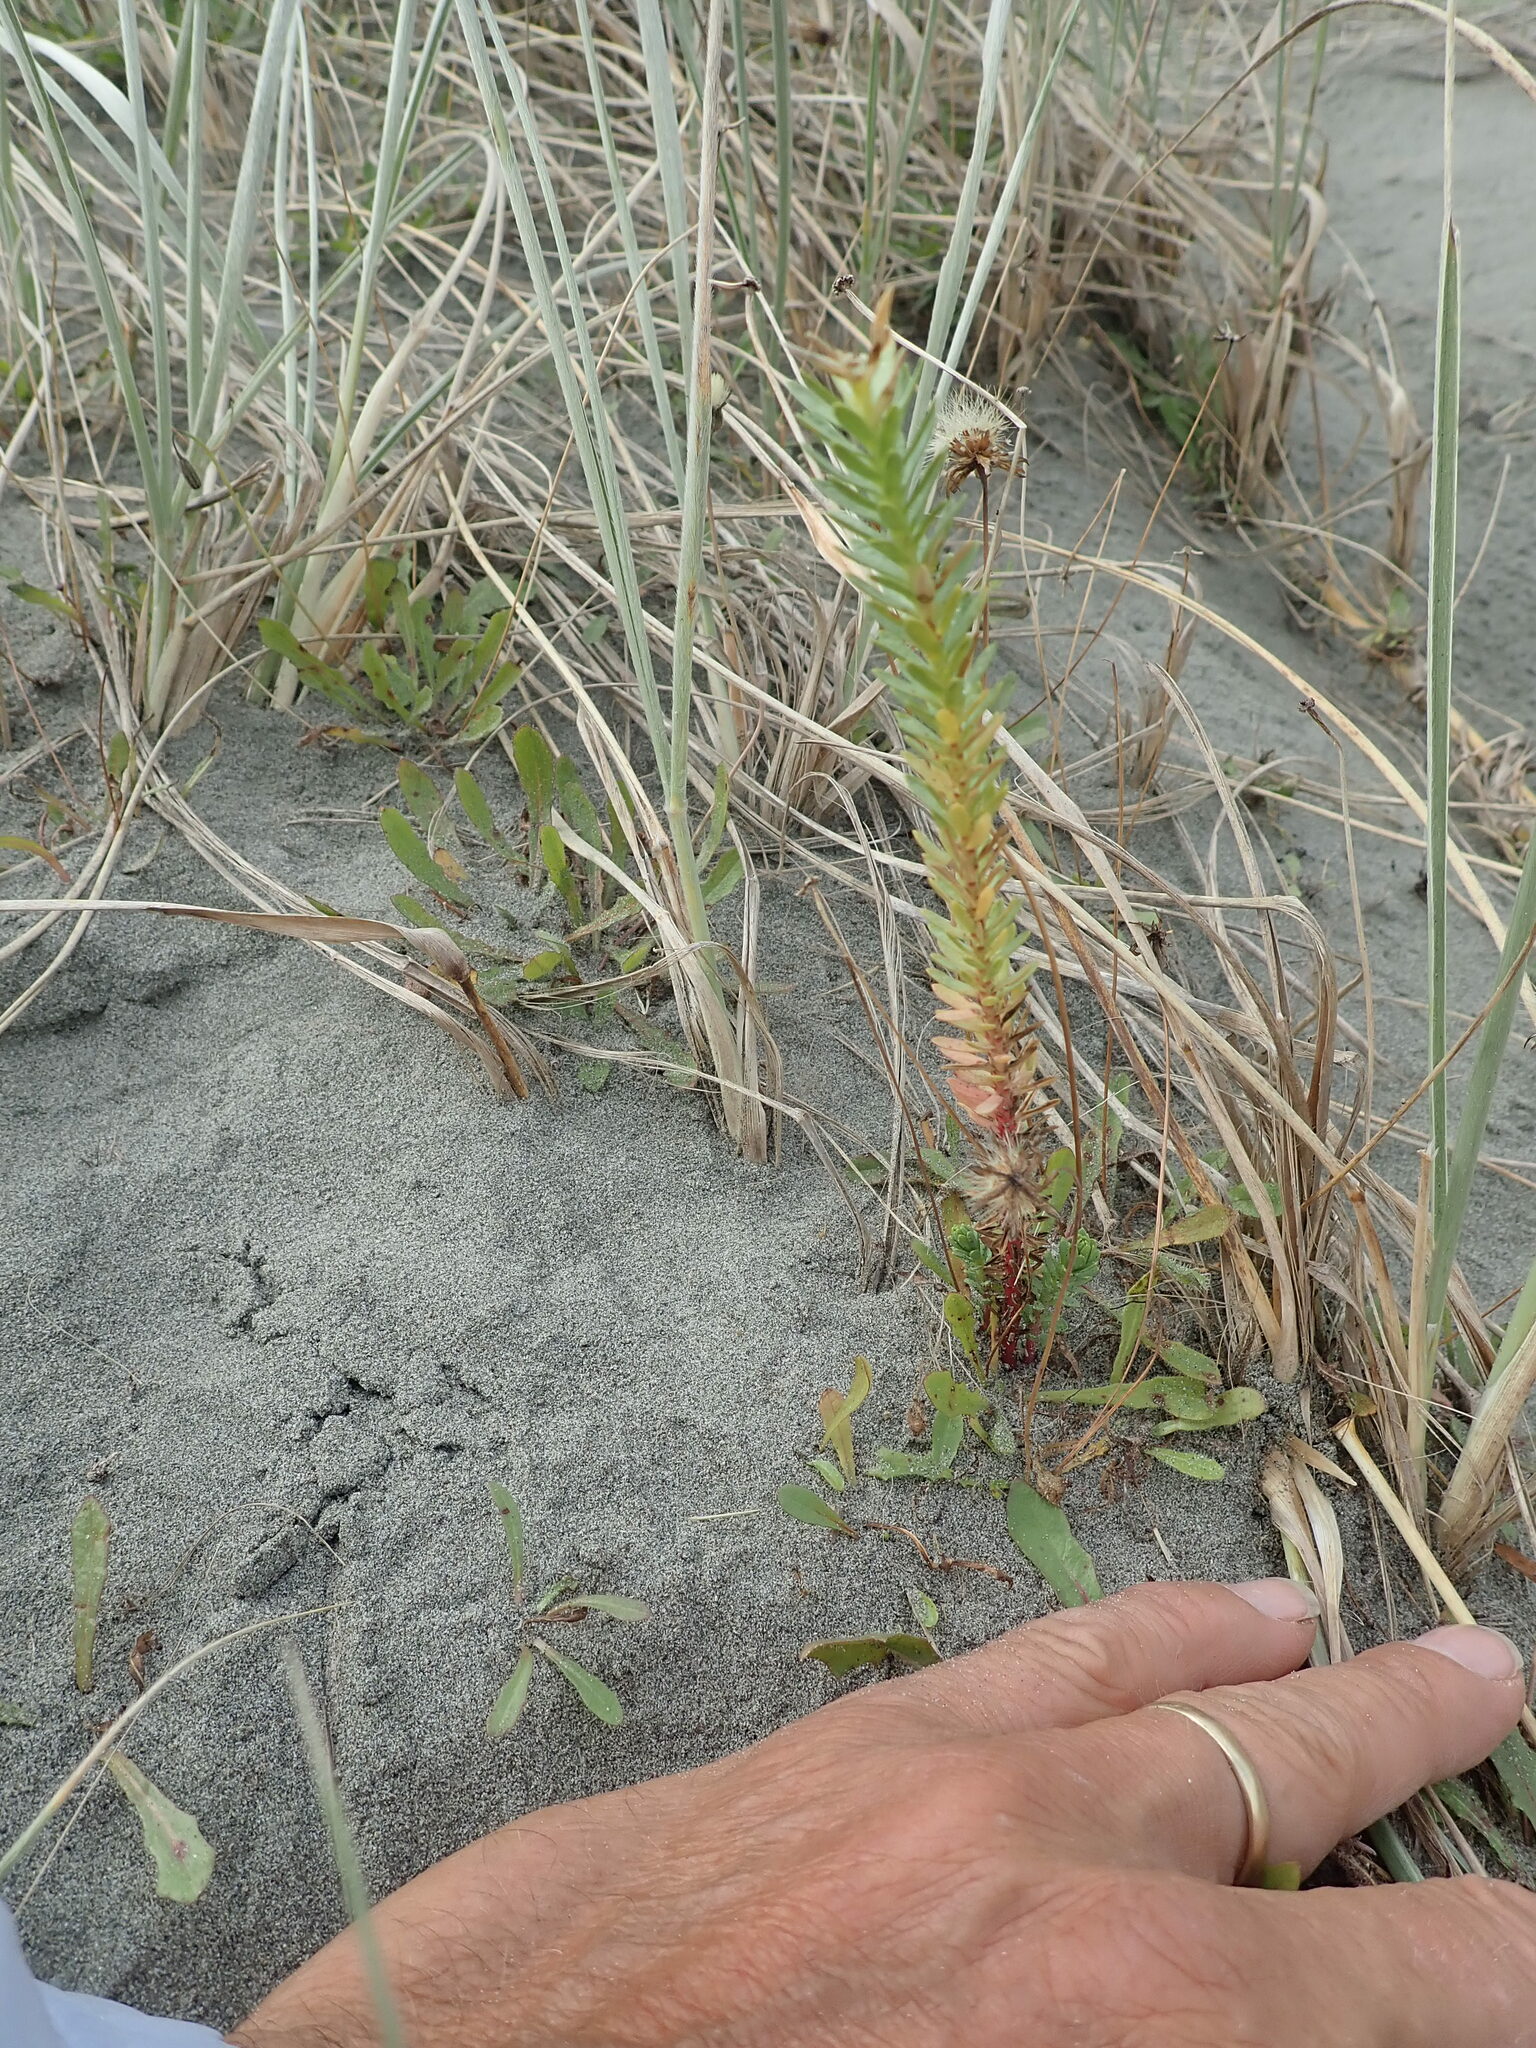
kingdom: Plantae
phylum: Tracheophyta
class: Magnoliopsida
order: Malpighiales
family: Euphorbiaceae
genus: Euphorbia
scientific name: Euphorbia paralias
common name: Sea spurge
